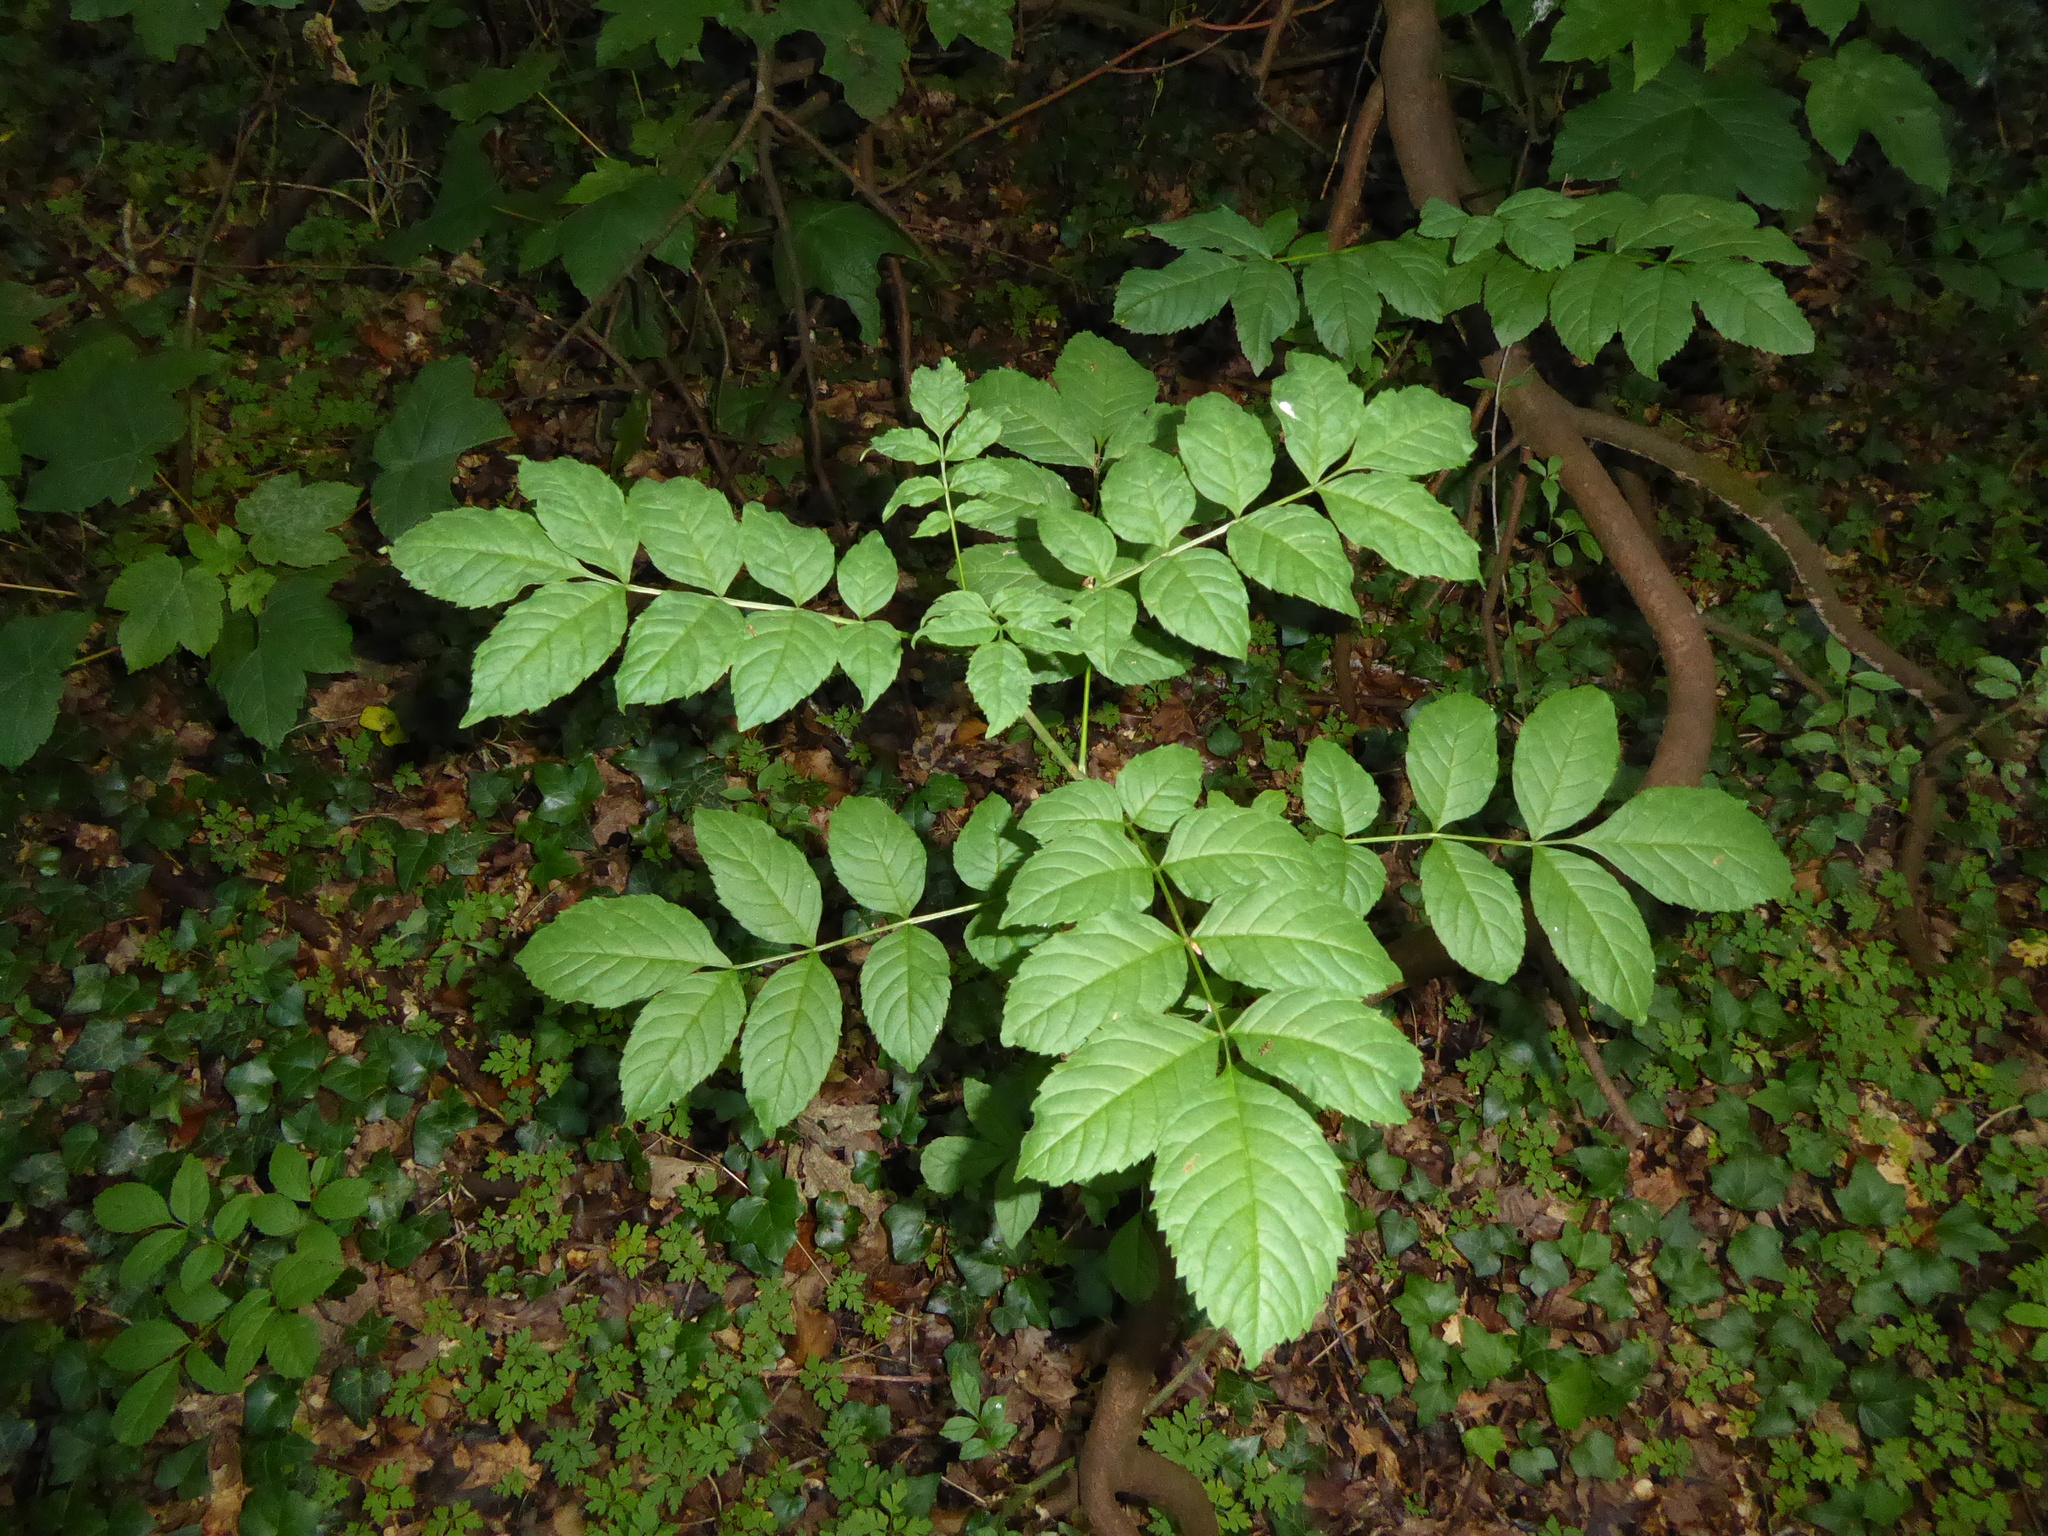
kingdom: Plantae
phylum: Tracheophyta
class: Magnoliopsida
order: Lamiales
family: Oleaceae
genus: Fraxinus
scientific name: Fraxinus excelsior
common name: European ash
